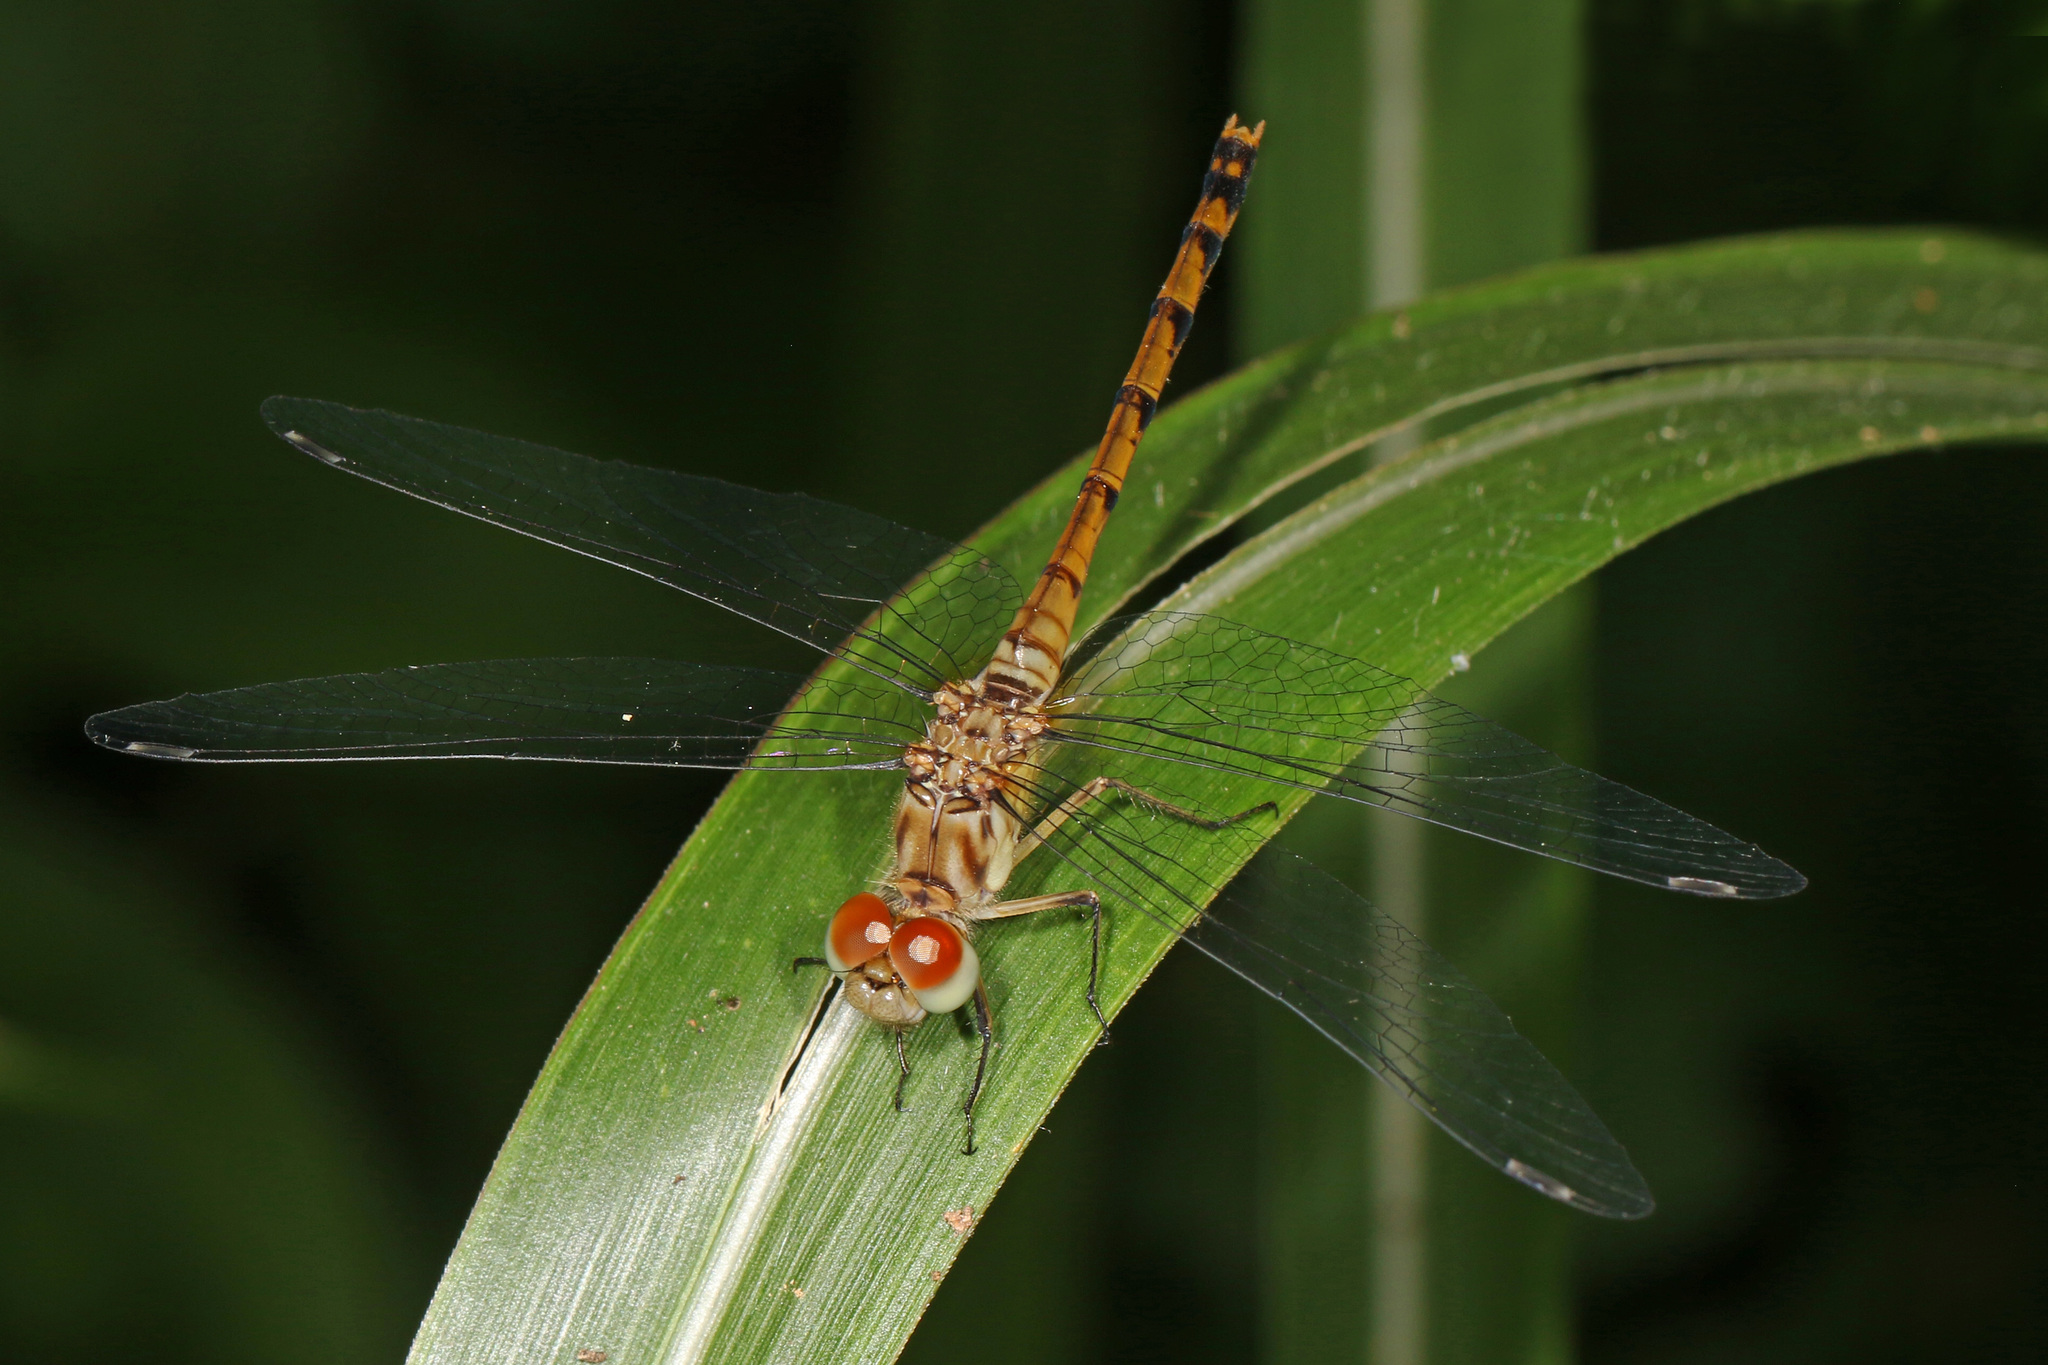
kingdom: Animalia
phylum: Arthropoda
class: Insecta
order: Odonata
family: Libellulidae
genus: Sympetrum
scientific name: Sympetrum ambiguum
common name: Blue-faced meadowhawk
